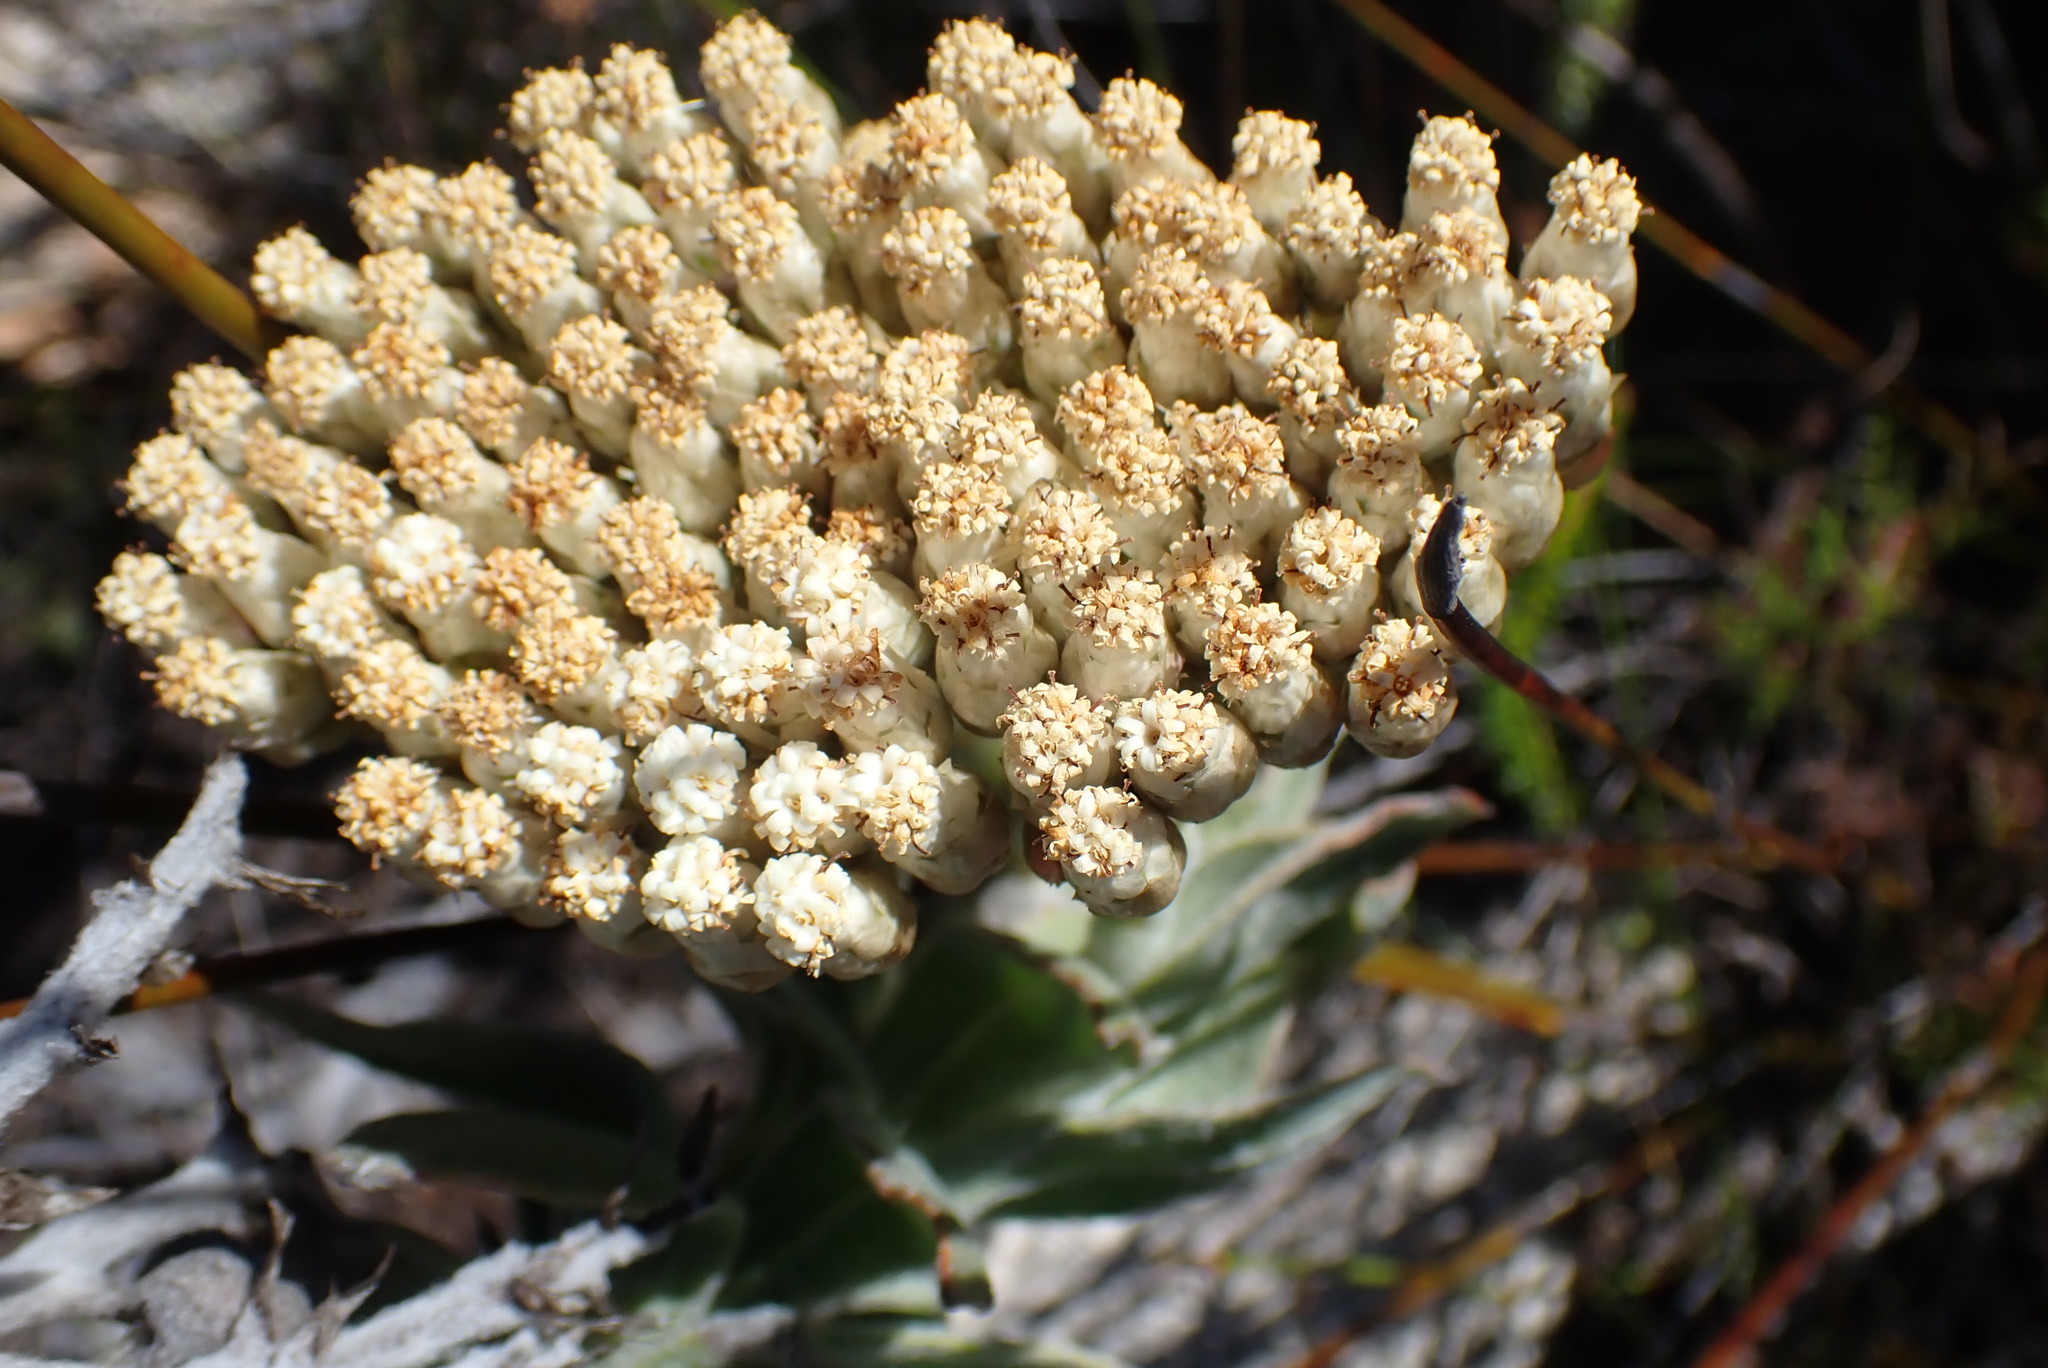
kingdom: Plantae
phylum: Tracheophyta
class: Magnoliopsida
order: Asterales
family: Asteraceae
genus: Syncarpha
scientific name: Syncarpha milleflora
